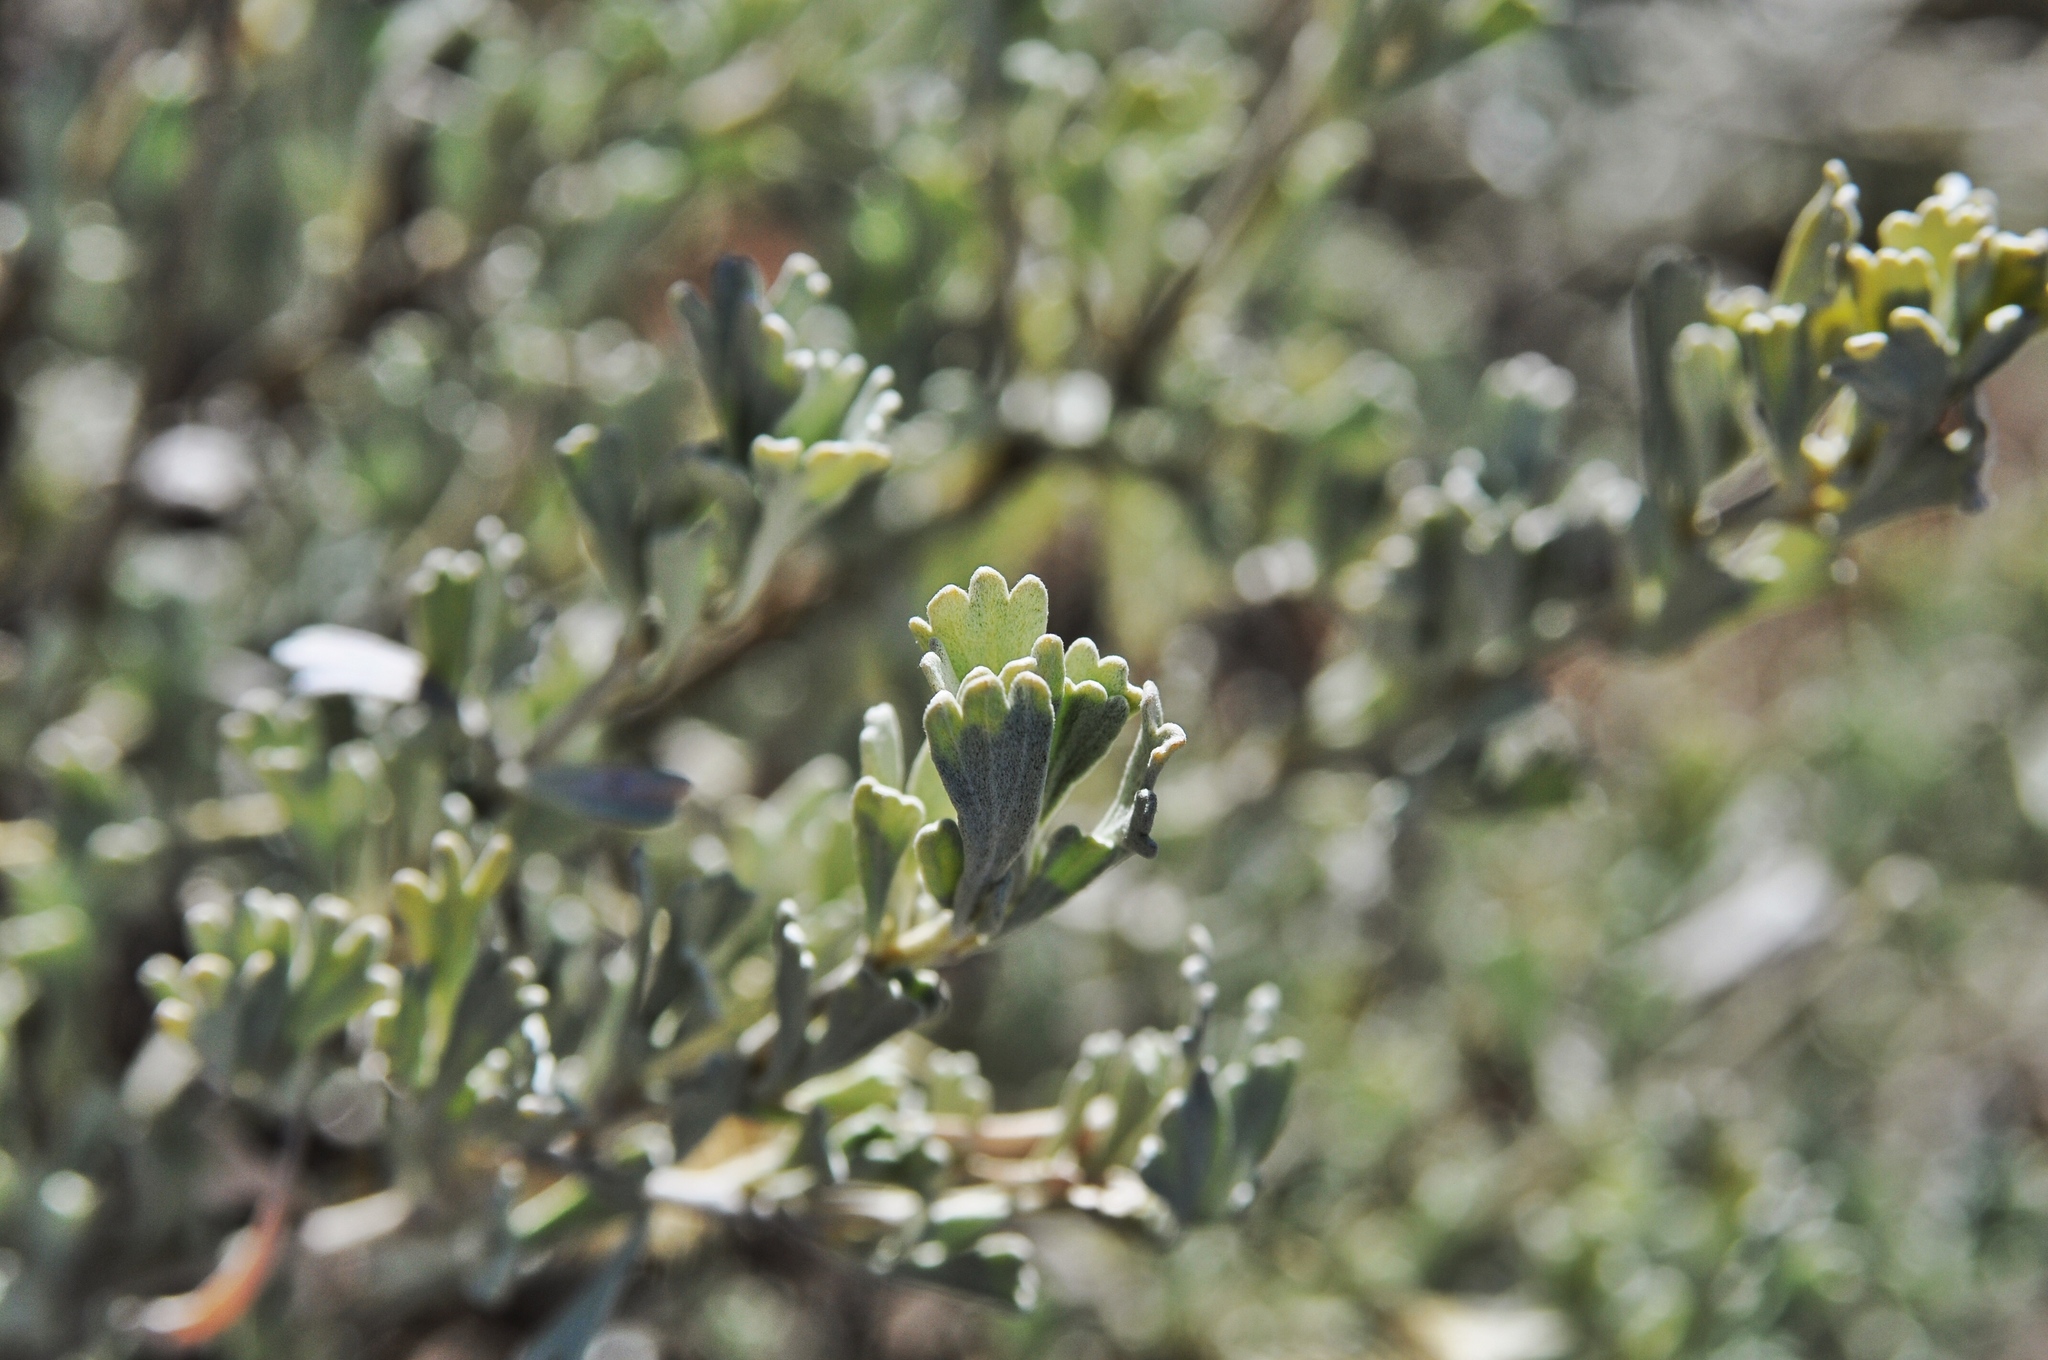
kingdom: Plantae
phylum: Tracheophyta
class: Magnoliopsida
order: Asterales
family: Asteraceae
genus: Artemisia
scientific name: Artemisia tridentata
